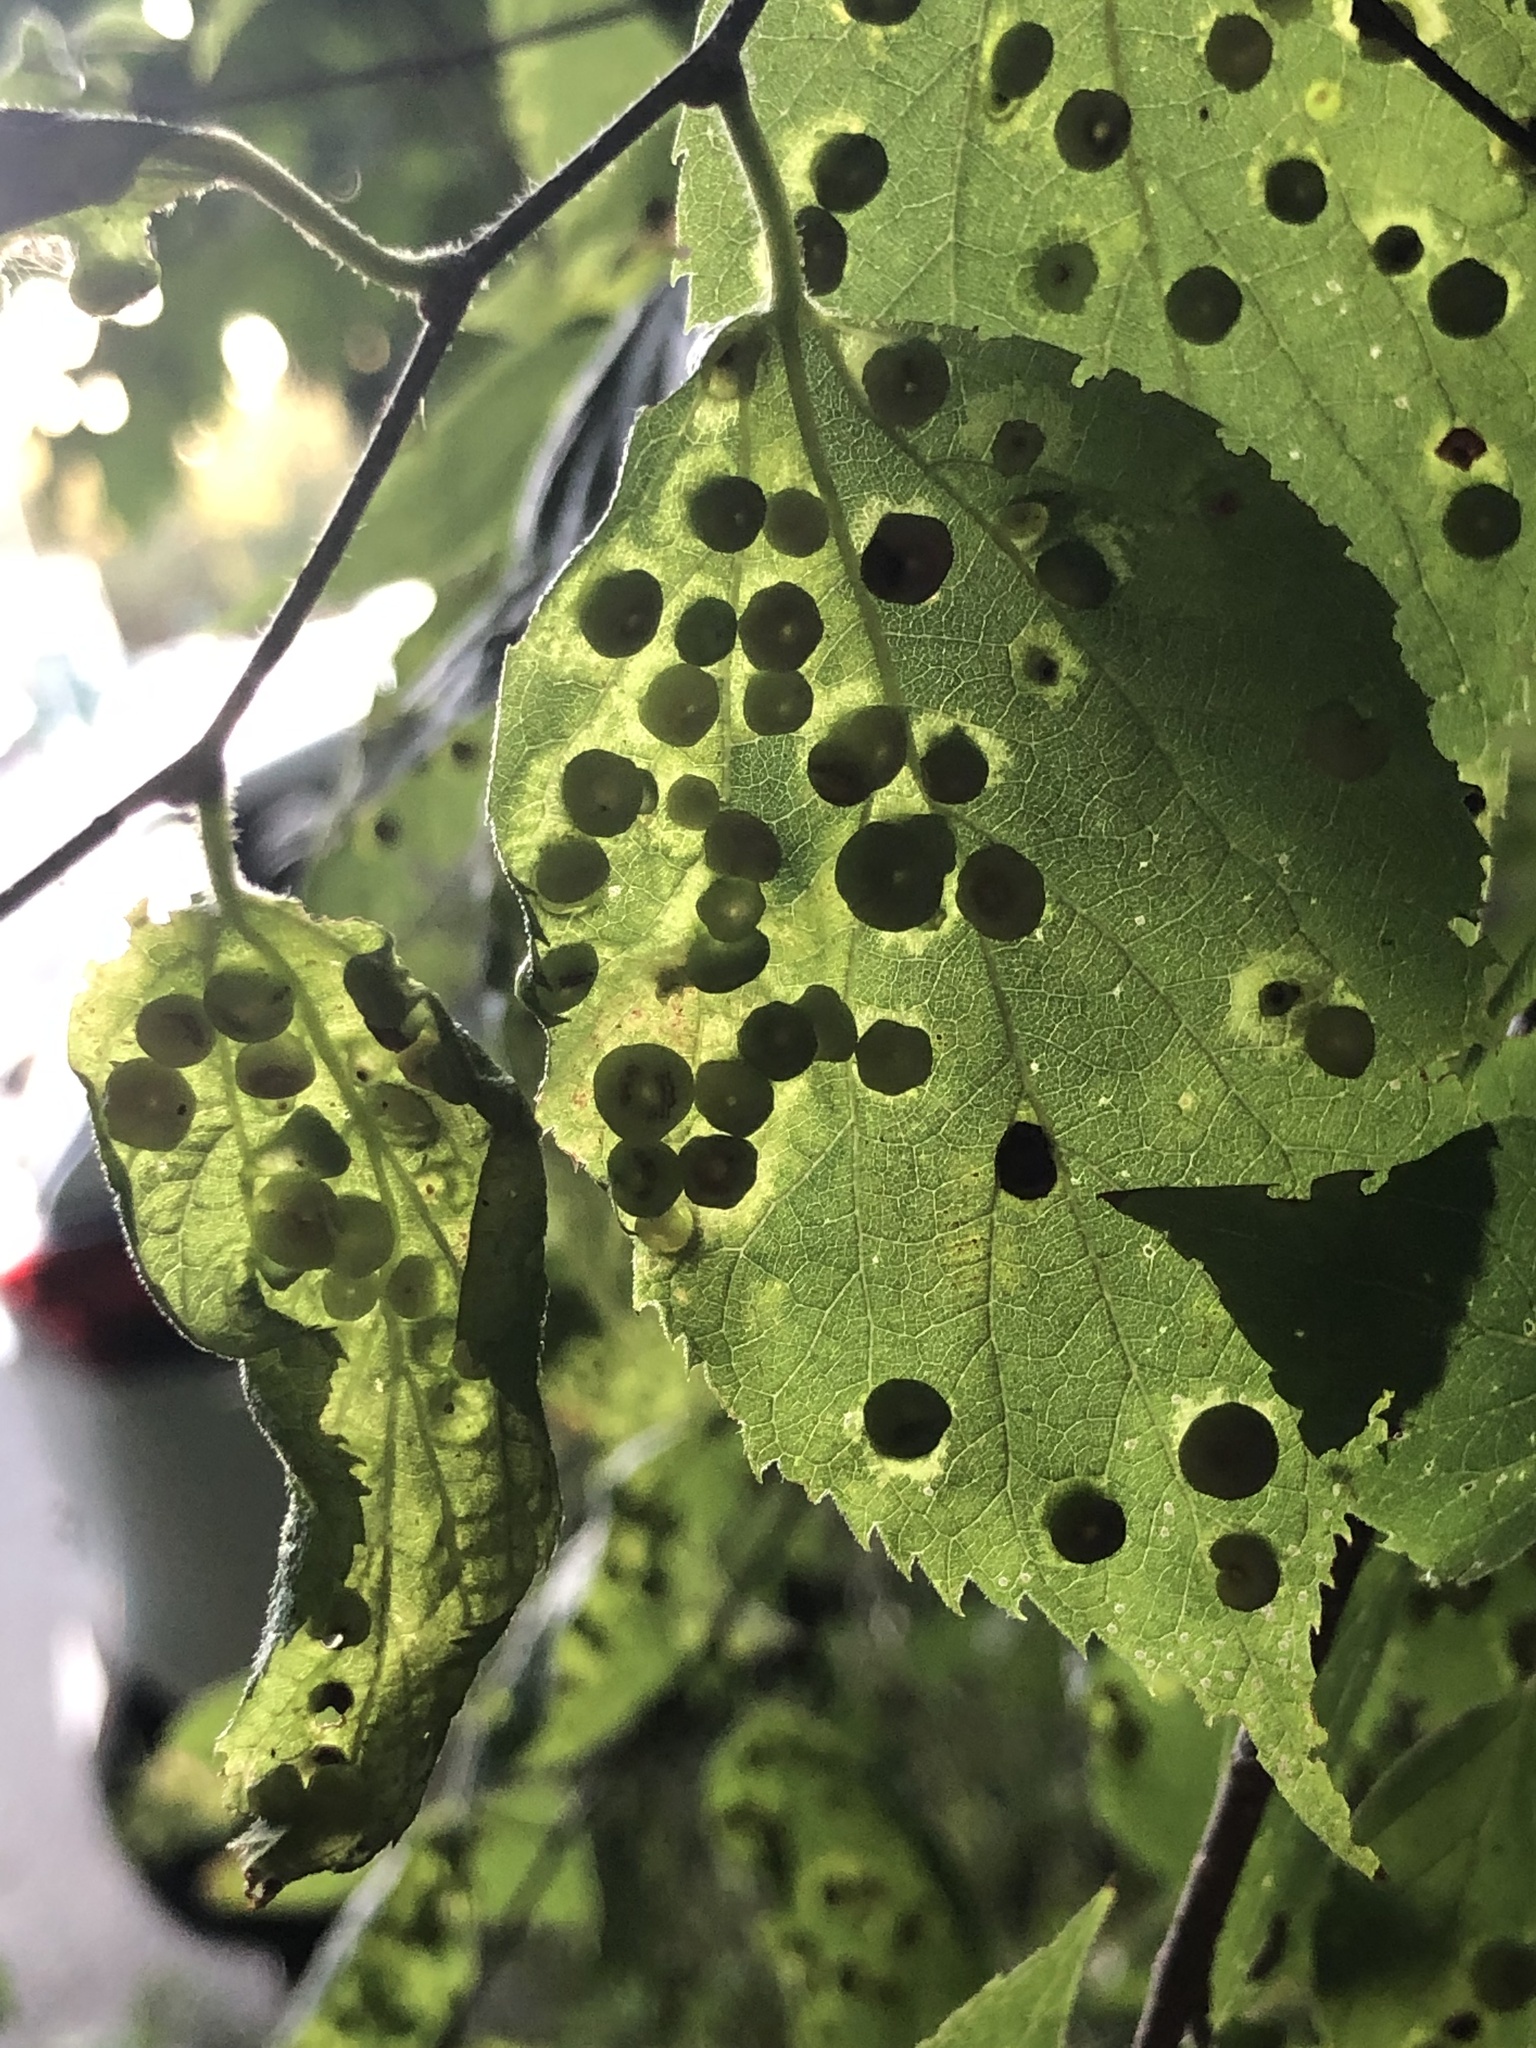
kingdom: Animalia
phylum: Arthropoda
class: Insecta
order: Hemiptera
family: Aphalaridae
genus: Pachypsylla
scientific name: Pachypsylla celtidismamma
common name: Hackberry nipplegall psyllid
